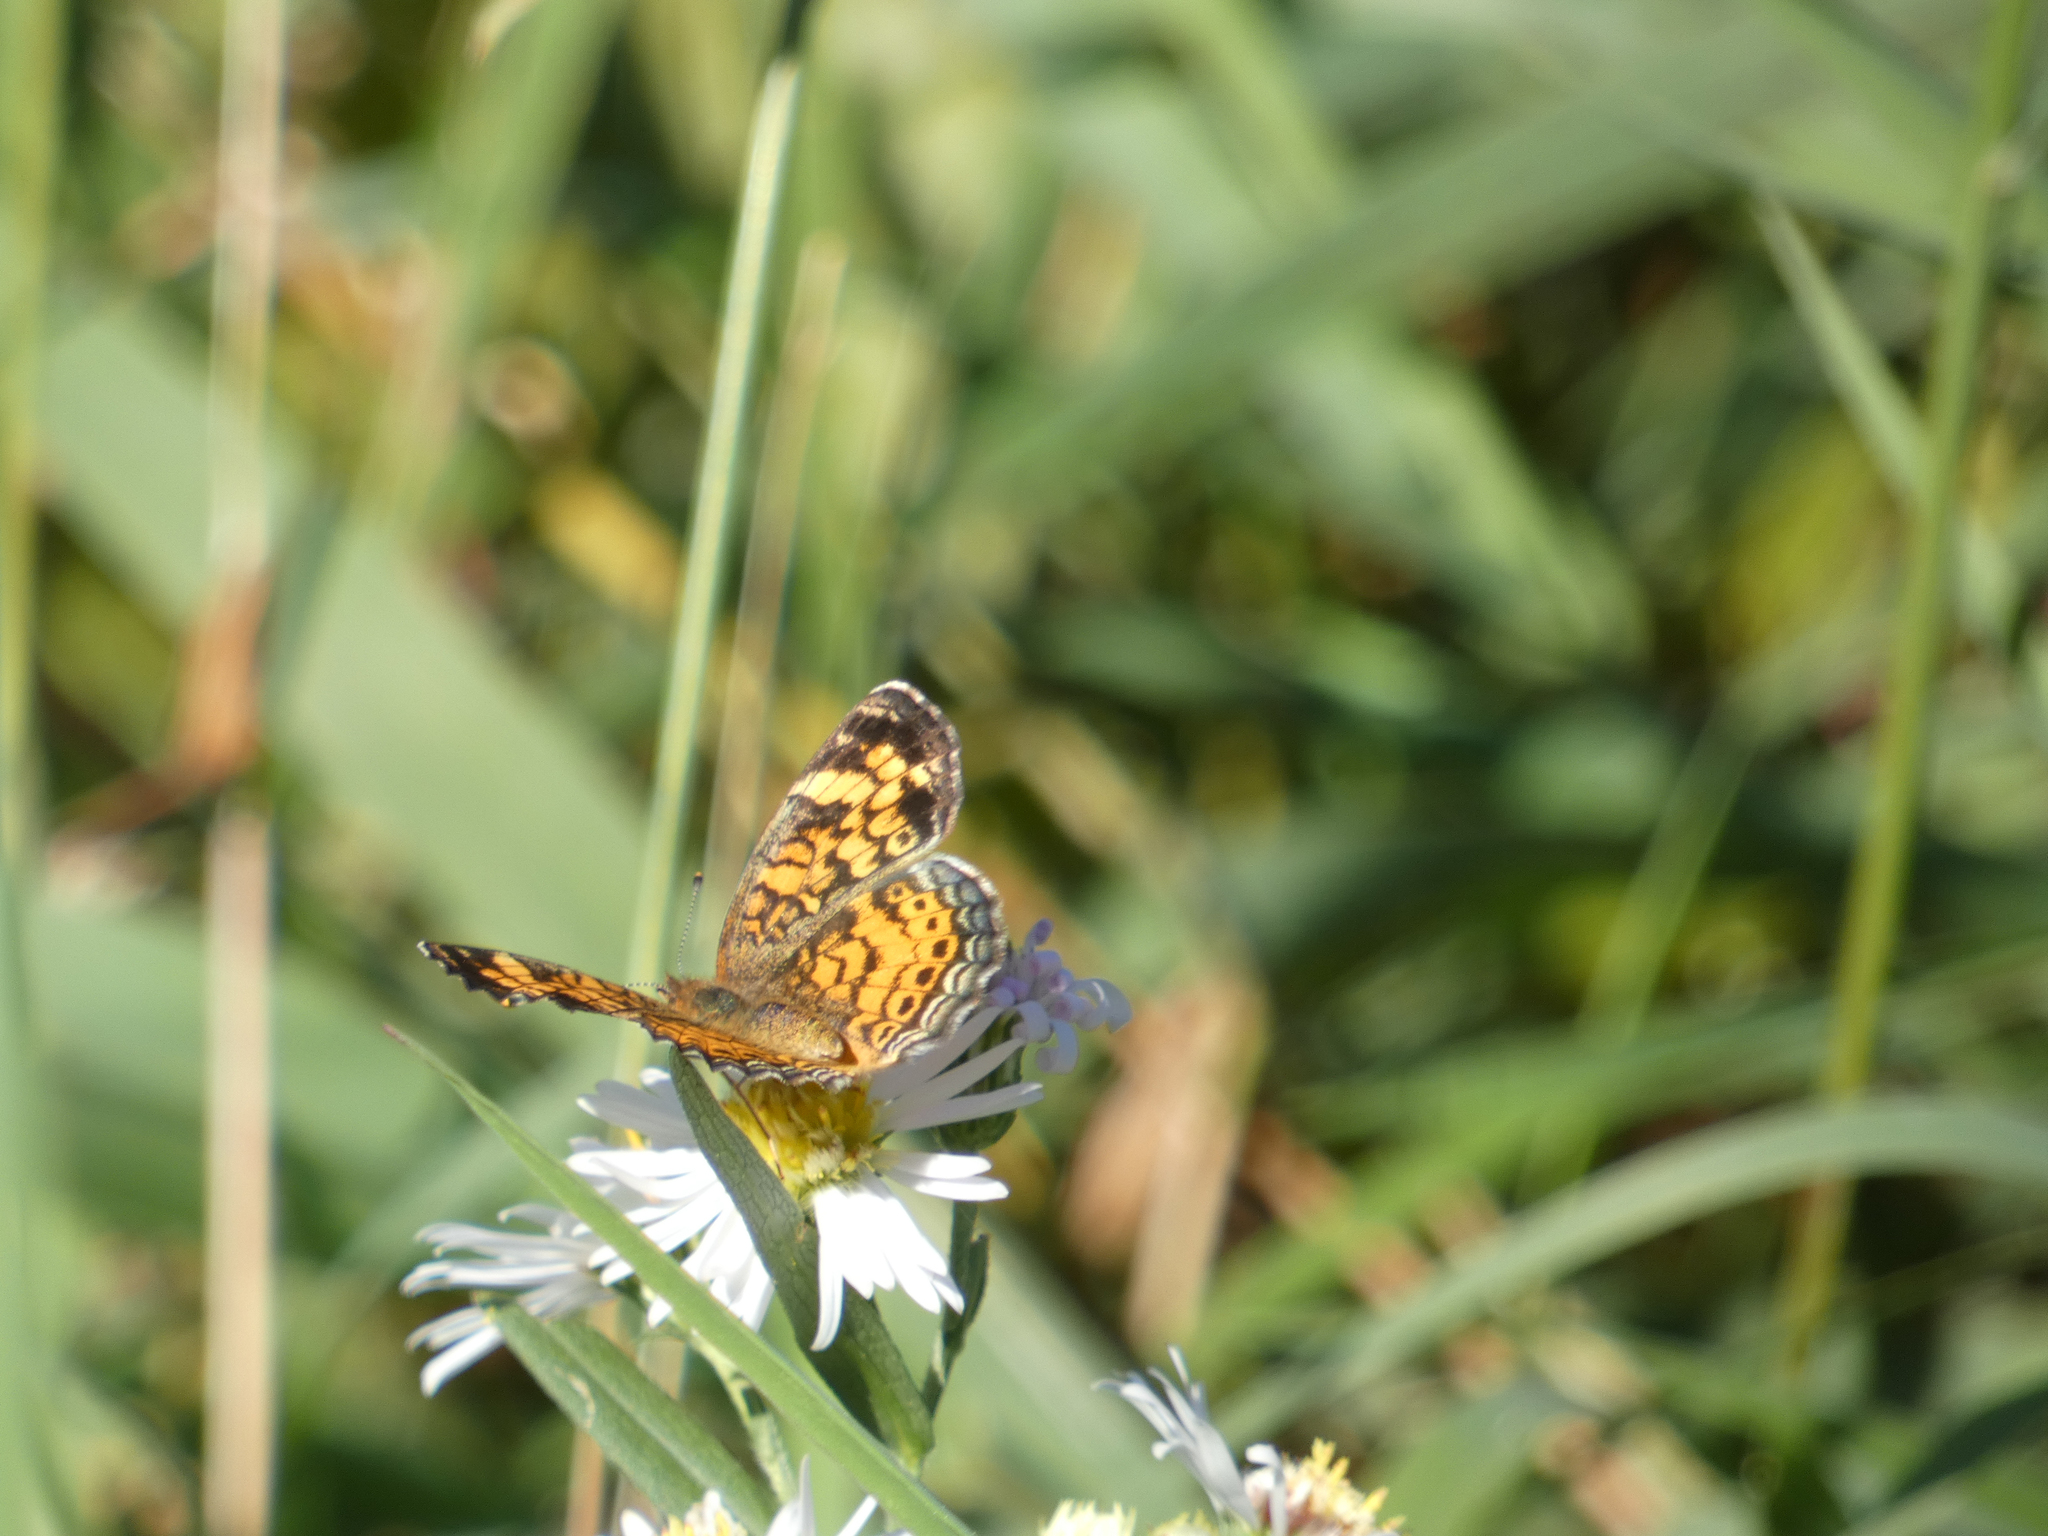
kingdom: Animalia
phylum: Arthropoda
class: Insecta
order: Lepidoptera
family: Nymphalidae
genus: Phyciodes
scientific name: Phyciodes tharos
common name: Pearl crescent
